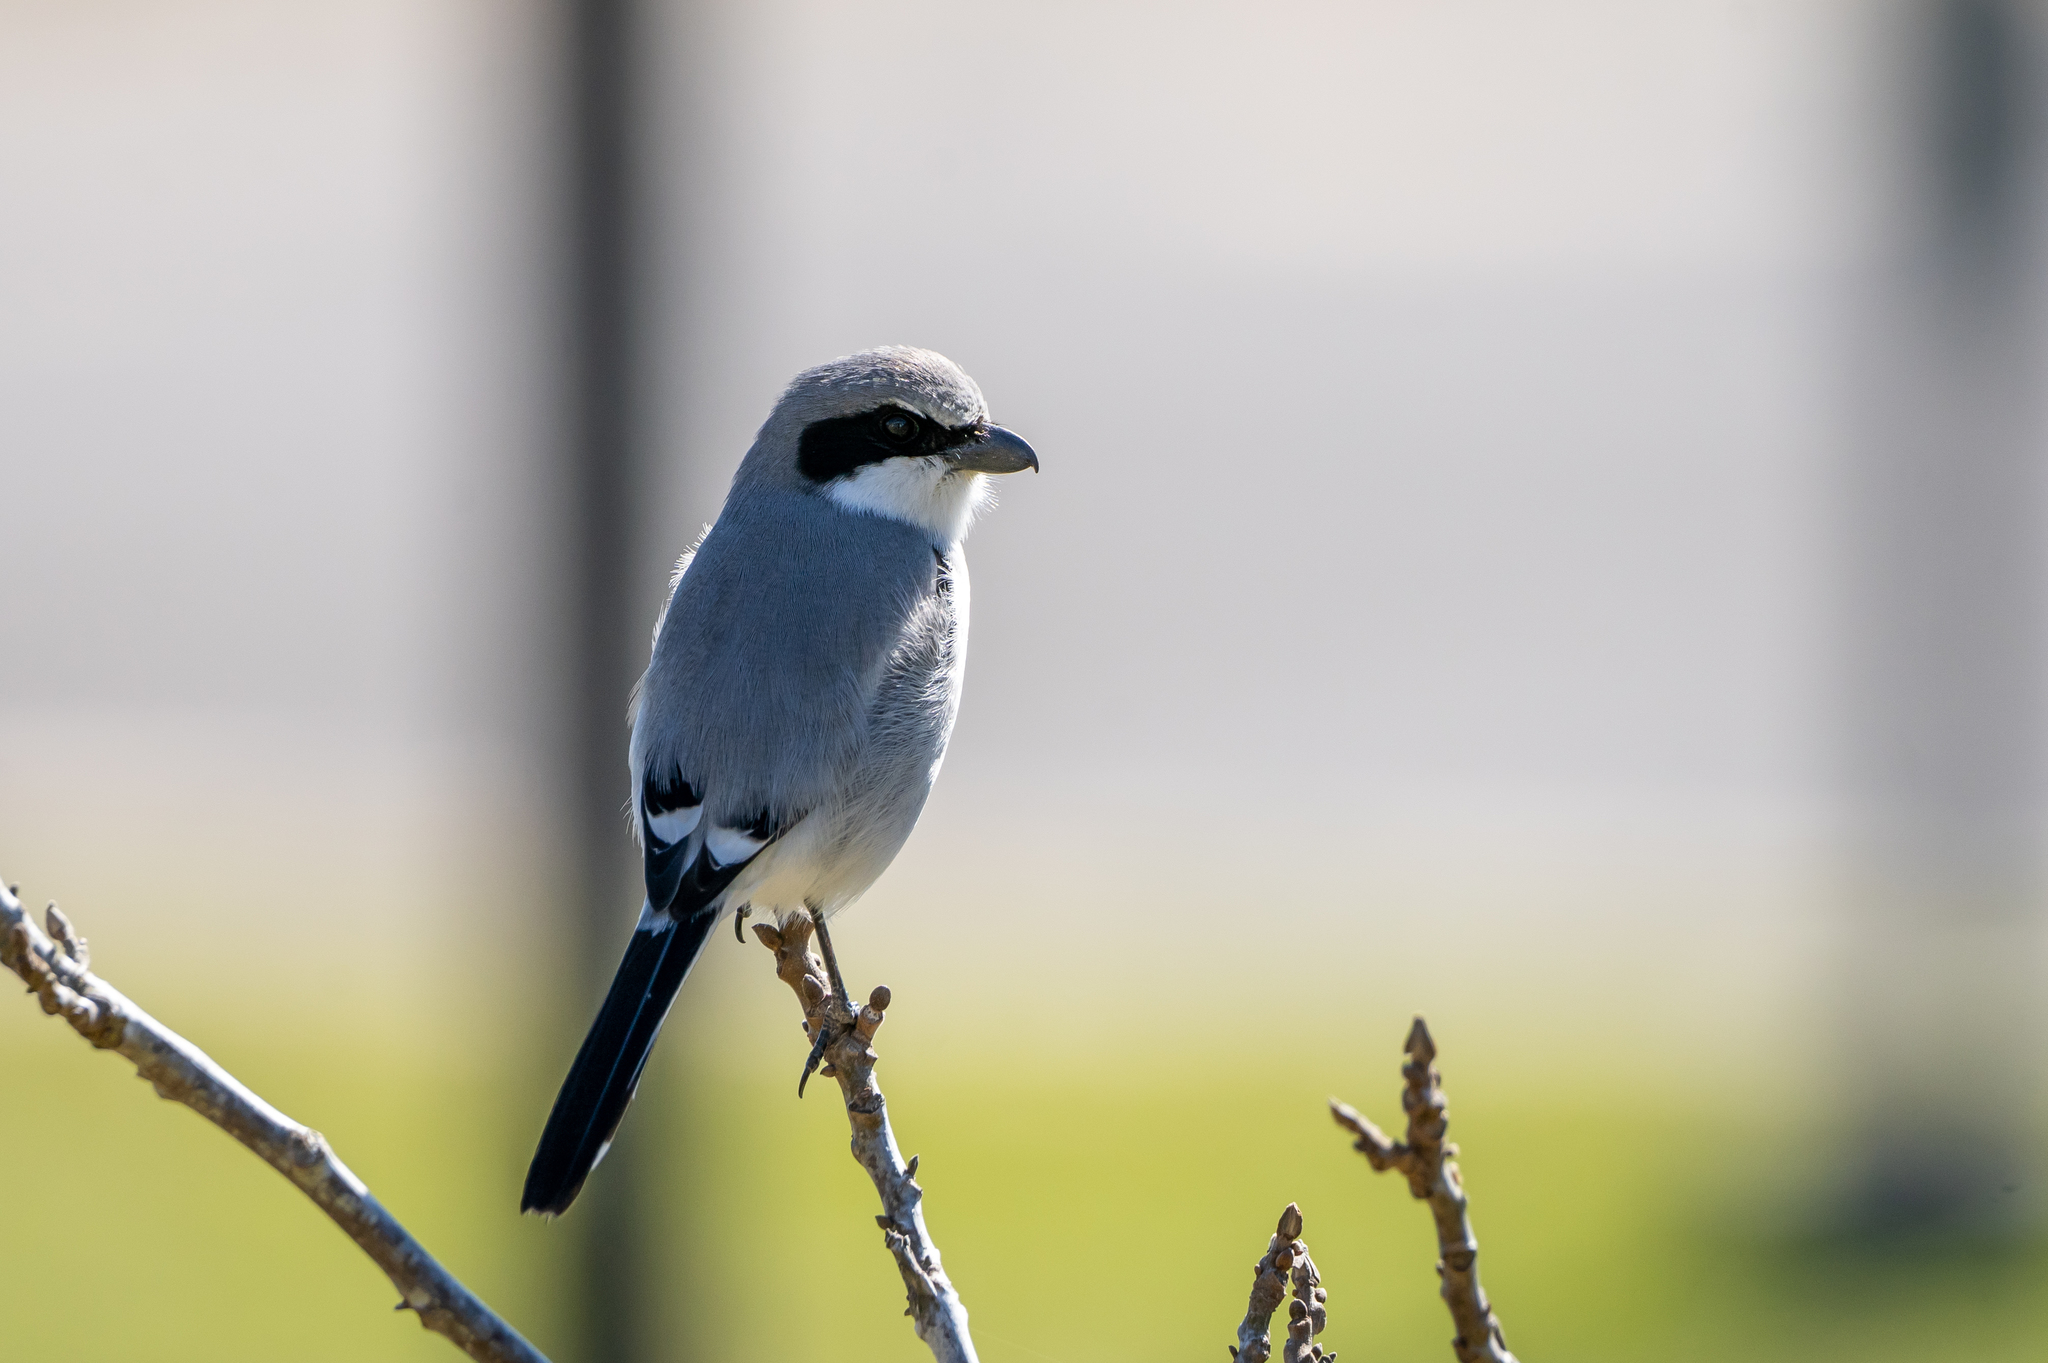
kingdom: Animalia
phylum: Chordata
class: Aves
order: Passeriformes
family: Laniidae
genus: Lanius
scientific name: Lanius ludovicianus
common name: Loggerhead shrike
